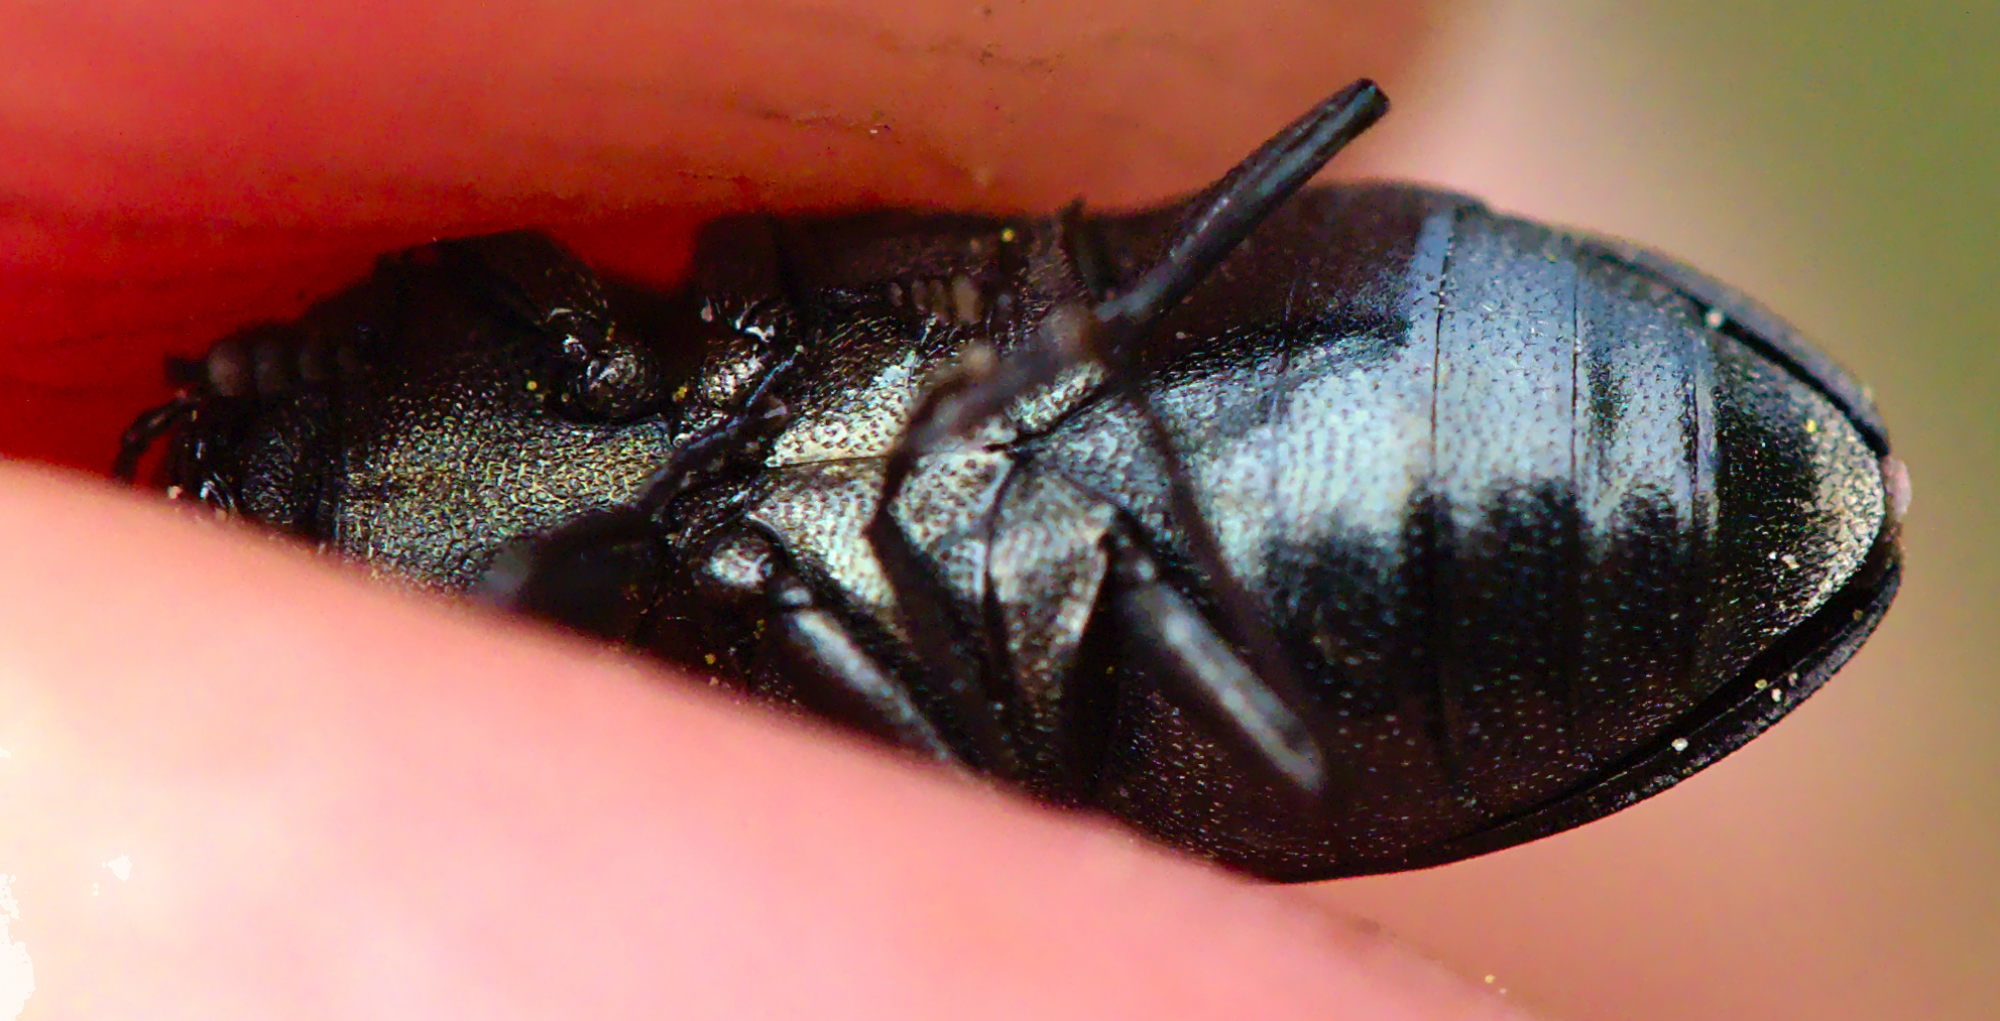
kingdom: Animalia
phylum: Arthropoda
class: Insecta
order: Coleoptera
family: Buprestidae
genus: Anthaxia
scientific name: Anthaxia quadripunctata
